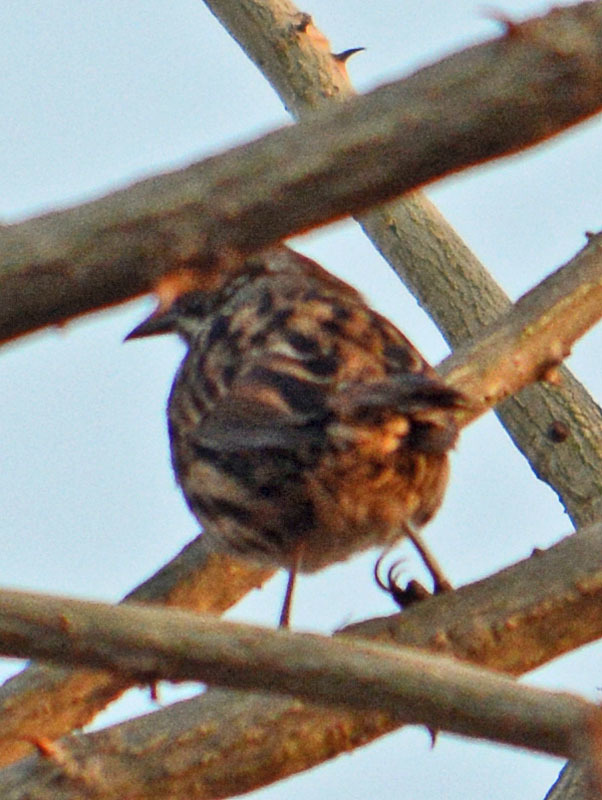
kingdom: Animalia
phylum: Chordata
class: Aves
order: Passeriformes
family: Passerellidae
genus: Melospiza
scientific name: Melospiza melodia
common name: Song sparrow
